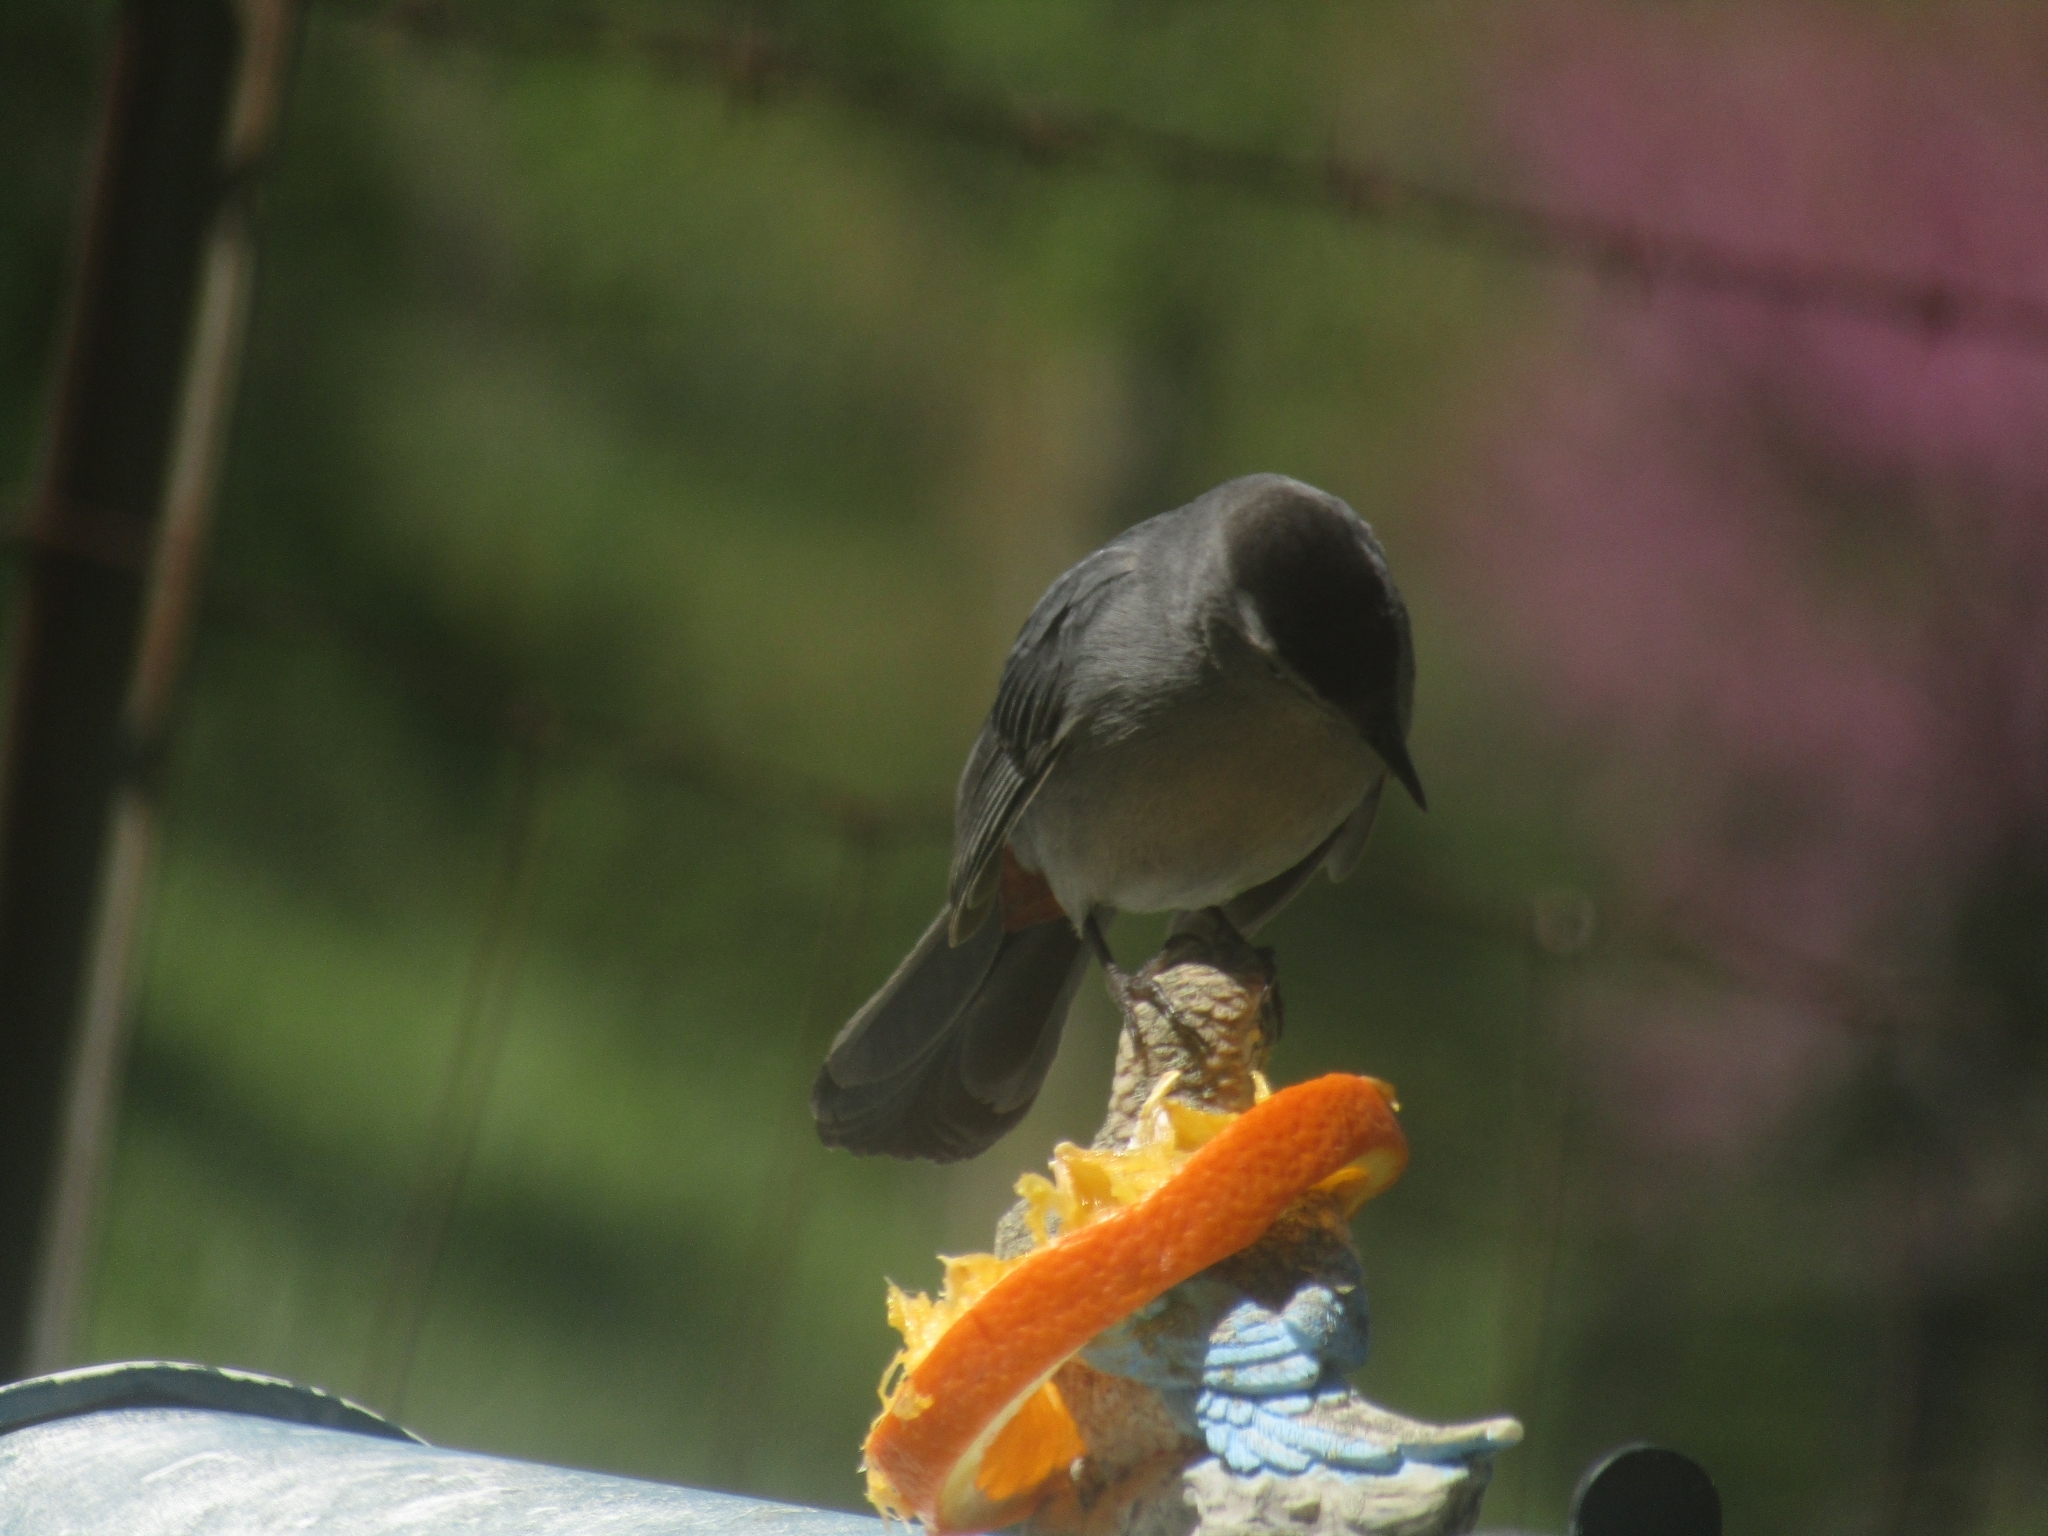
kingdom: Animalia
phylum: Chordata
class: Aves
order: Passeriformes
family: Mimidae
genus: Dumetella
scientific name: Dumetella carolinensis
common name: Gray catbird
